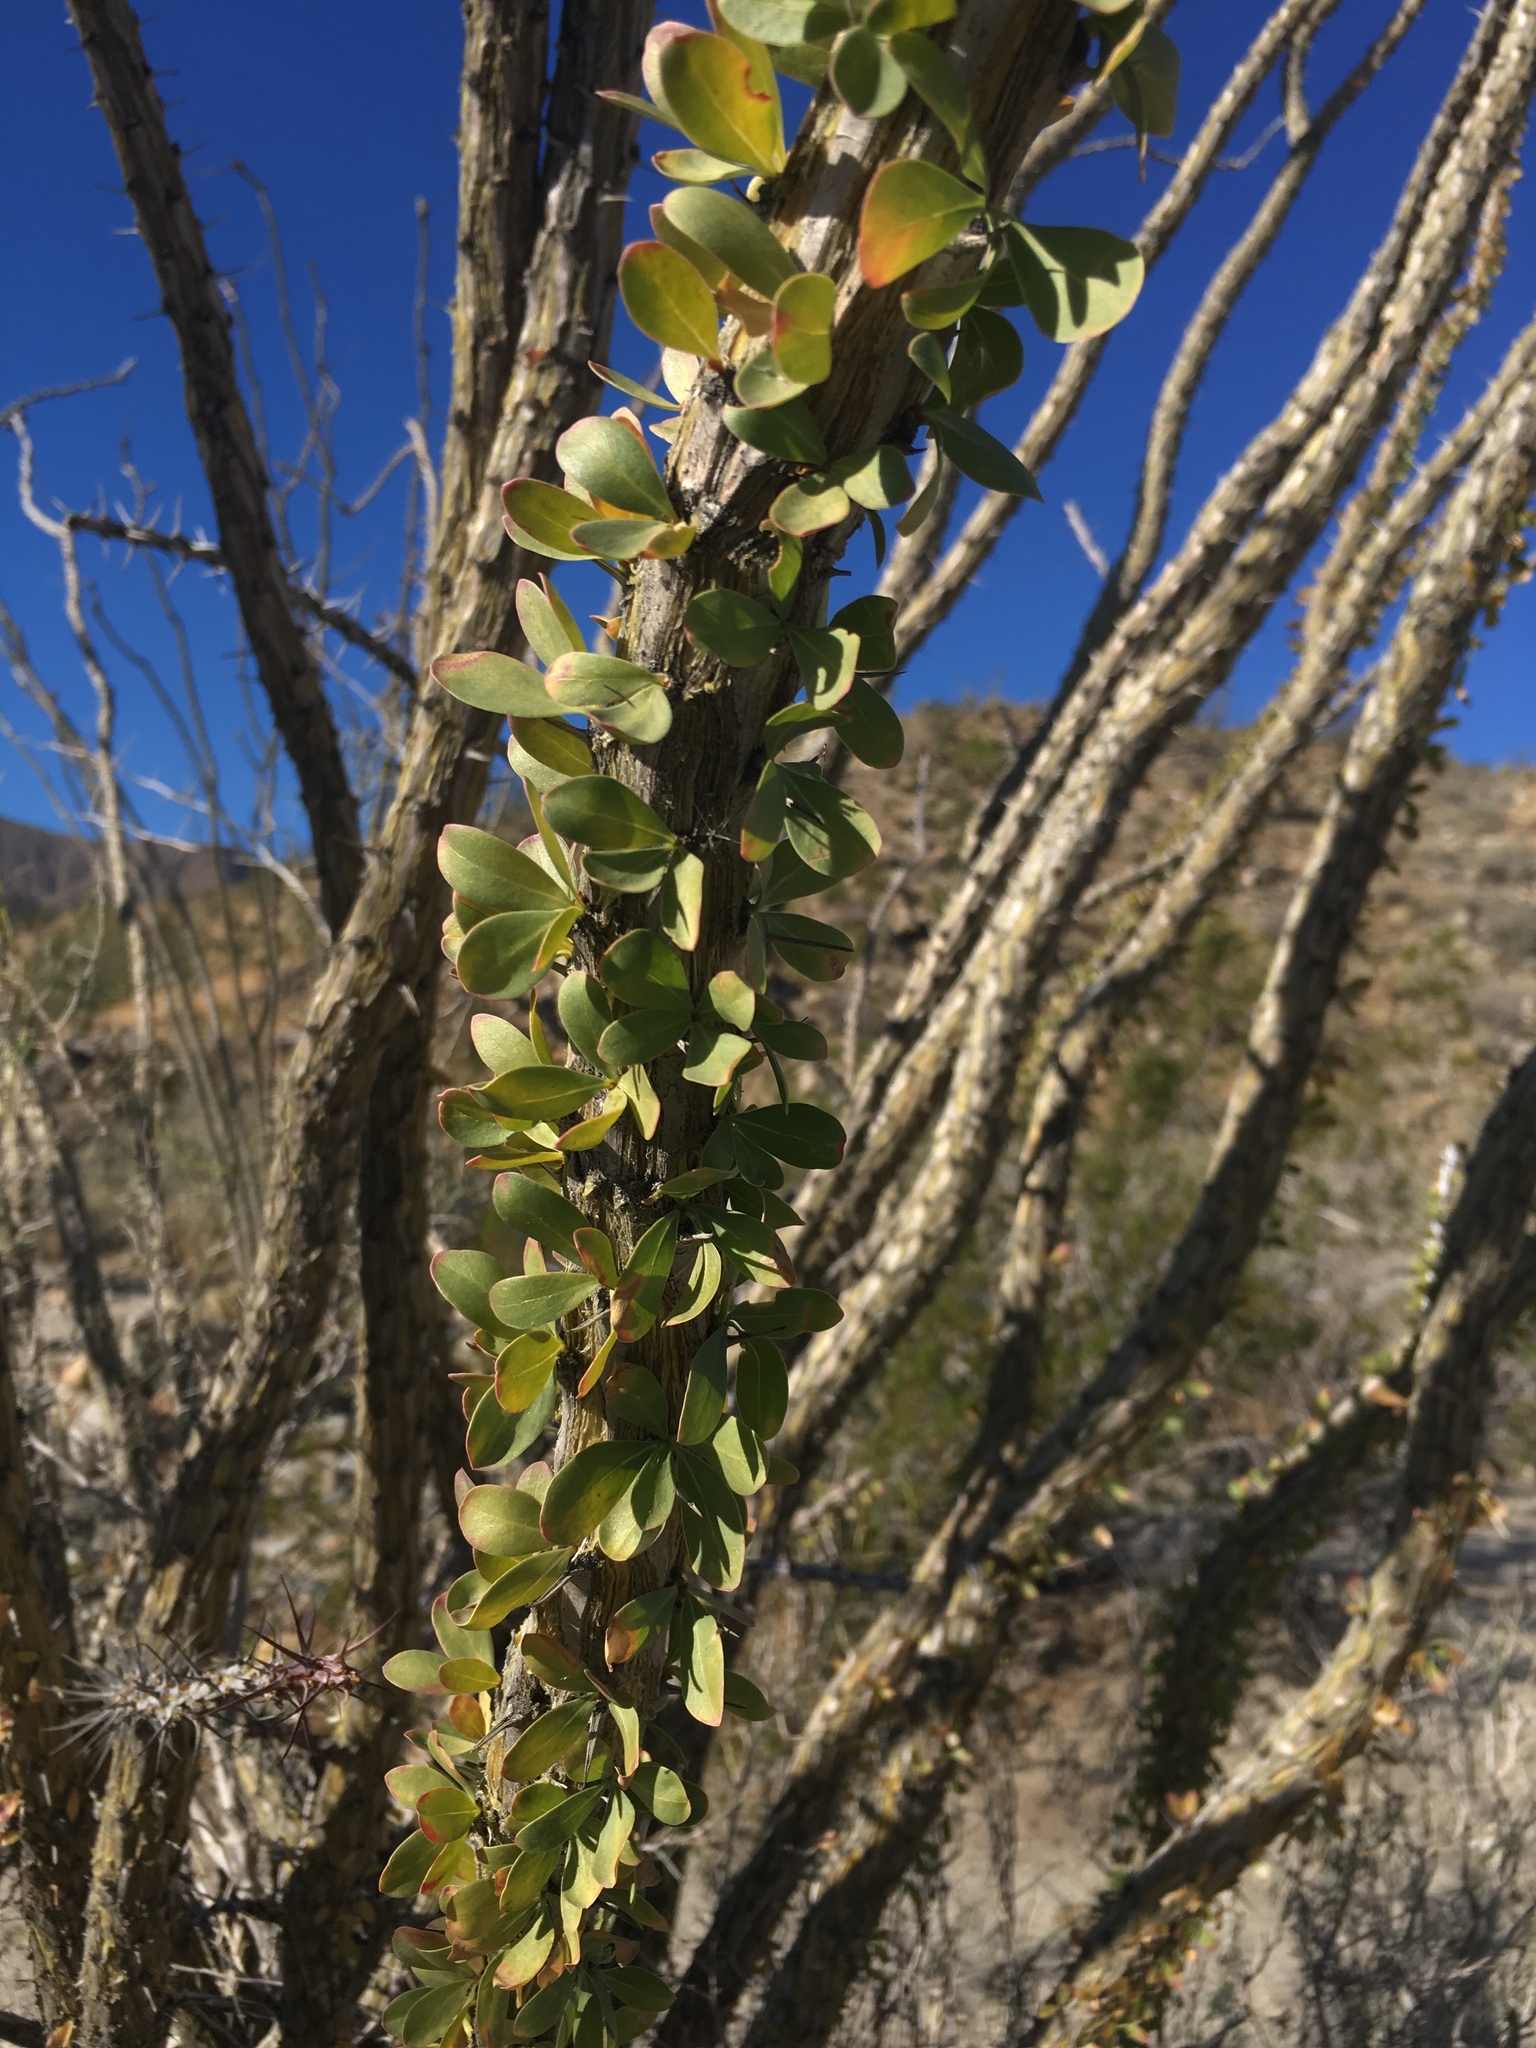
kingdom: Plantae
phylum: Tracheophyta
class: Magnoliopsida
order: Ericales
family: Fouquieriaceae
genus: Fouquieria
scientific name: Fouquieria splendens
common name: Vine-cactus
